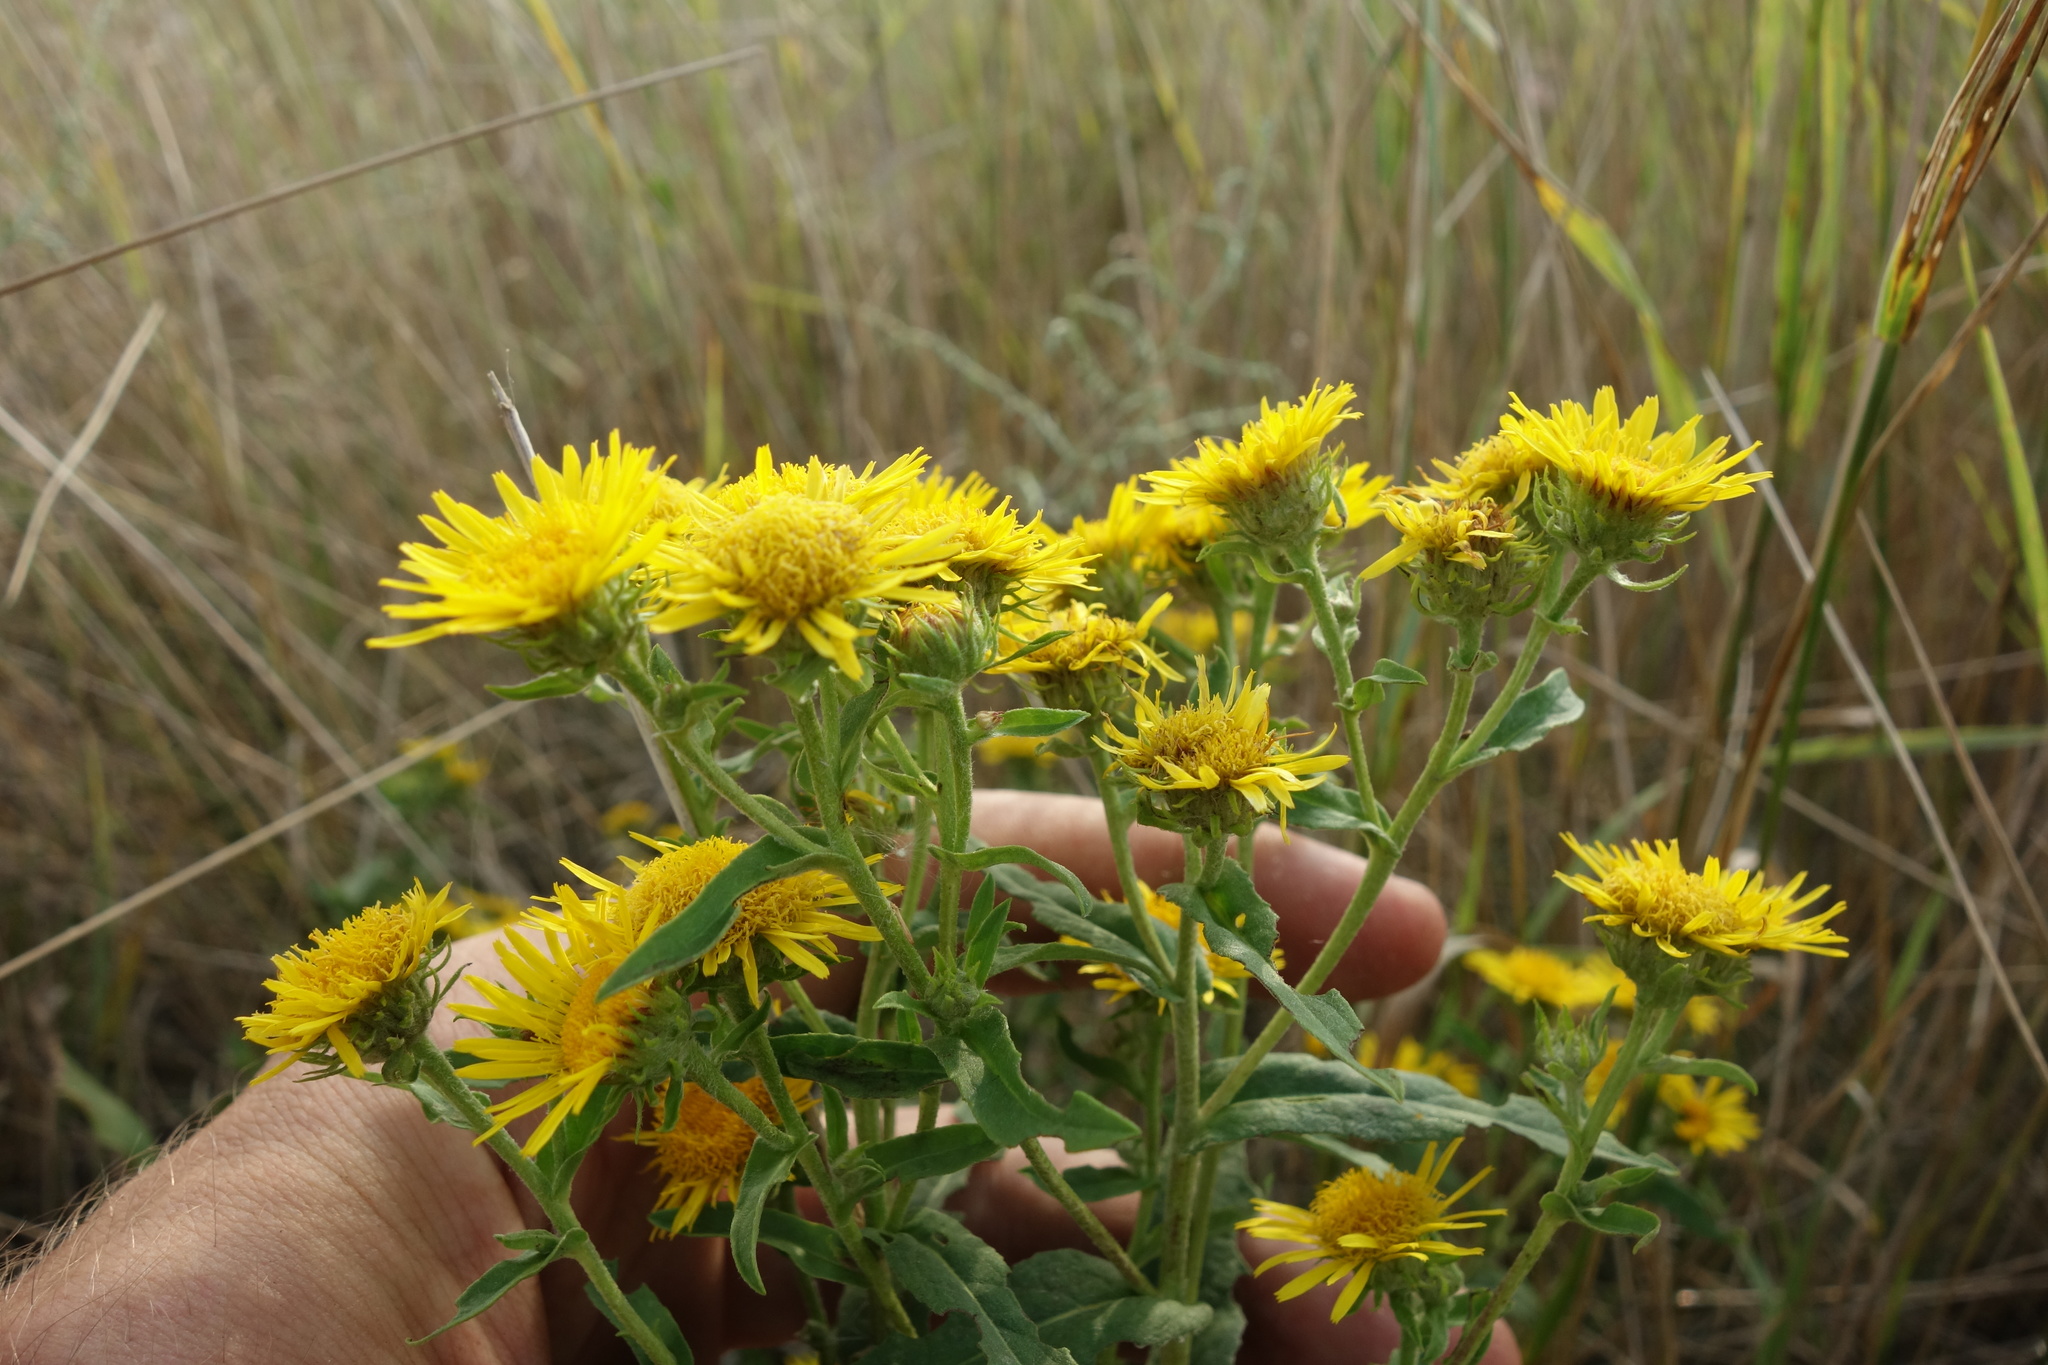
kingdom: Plantae
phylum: Tracheophyta
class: Magnoliopsida
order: Asterales
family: Asteraceae
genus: Pentanema
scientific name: Pentanema britannicum
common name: British elecampane
